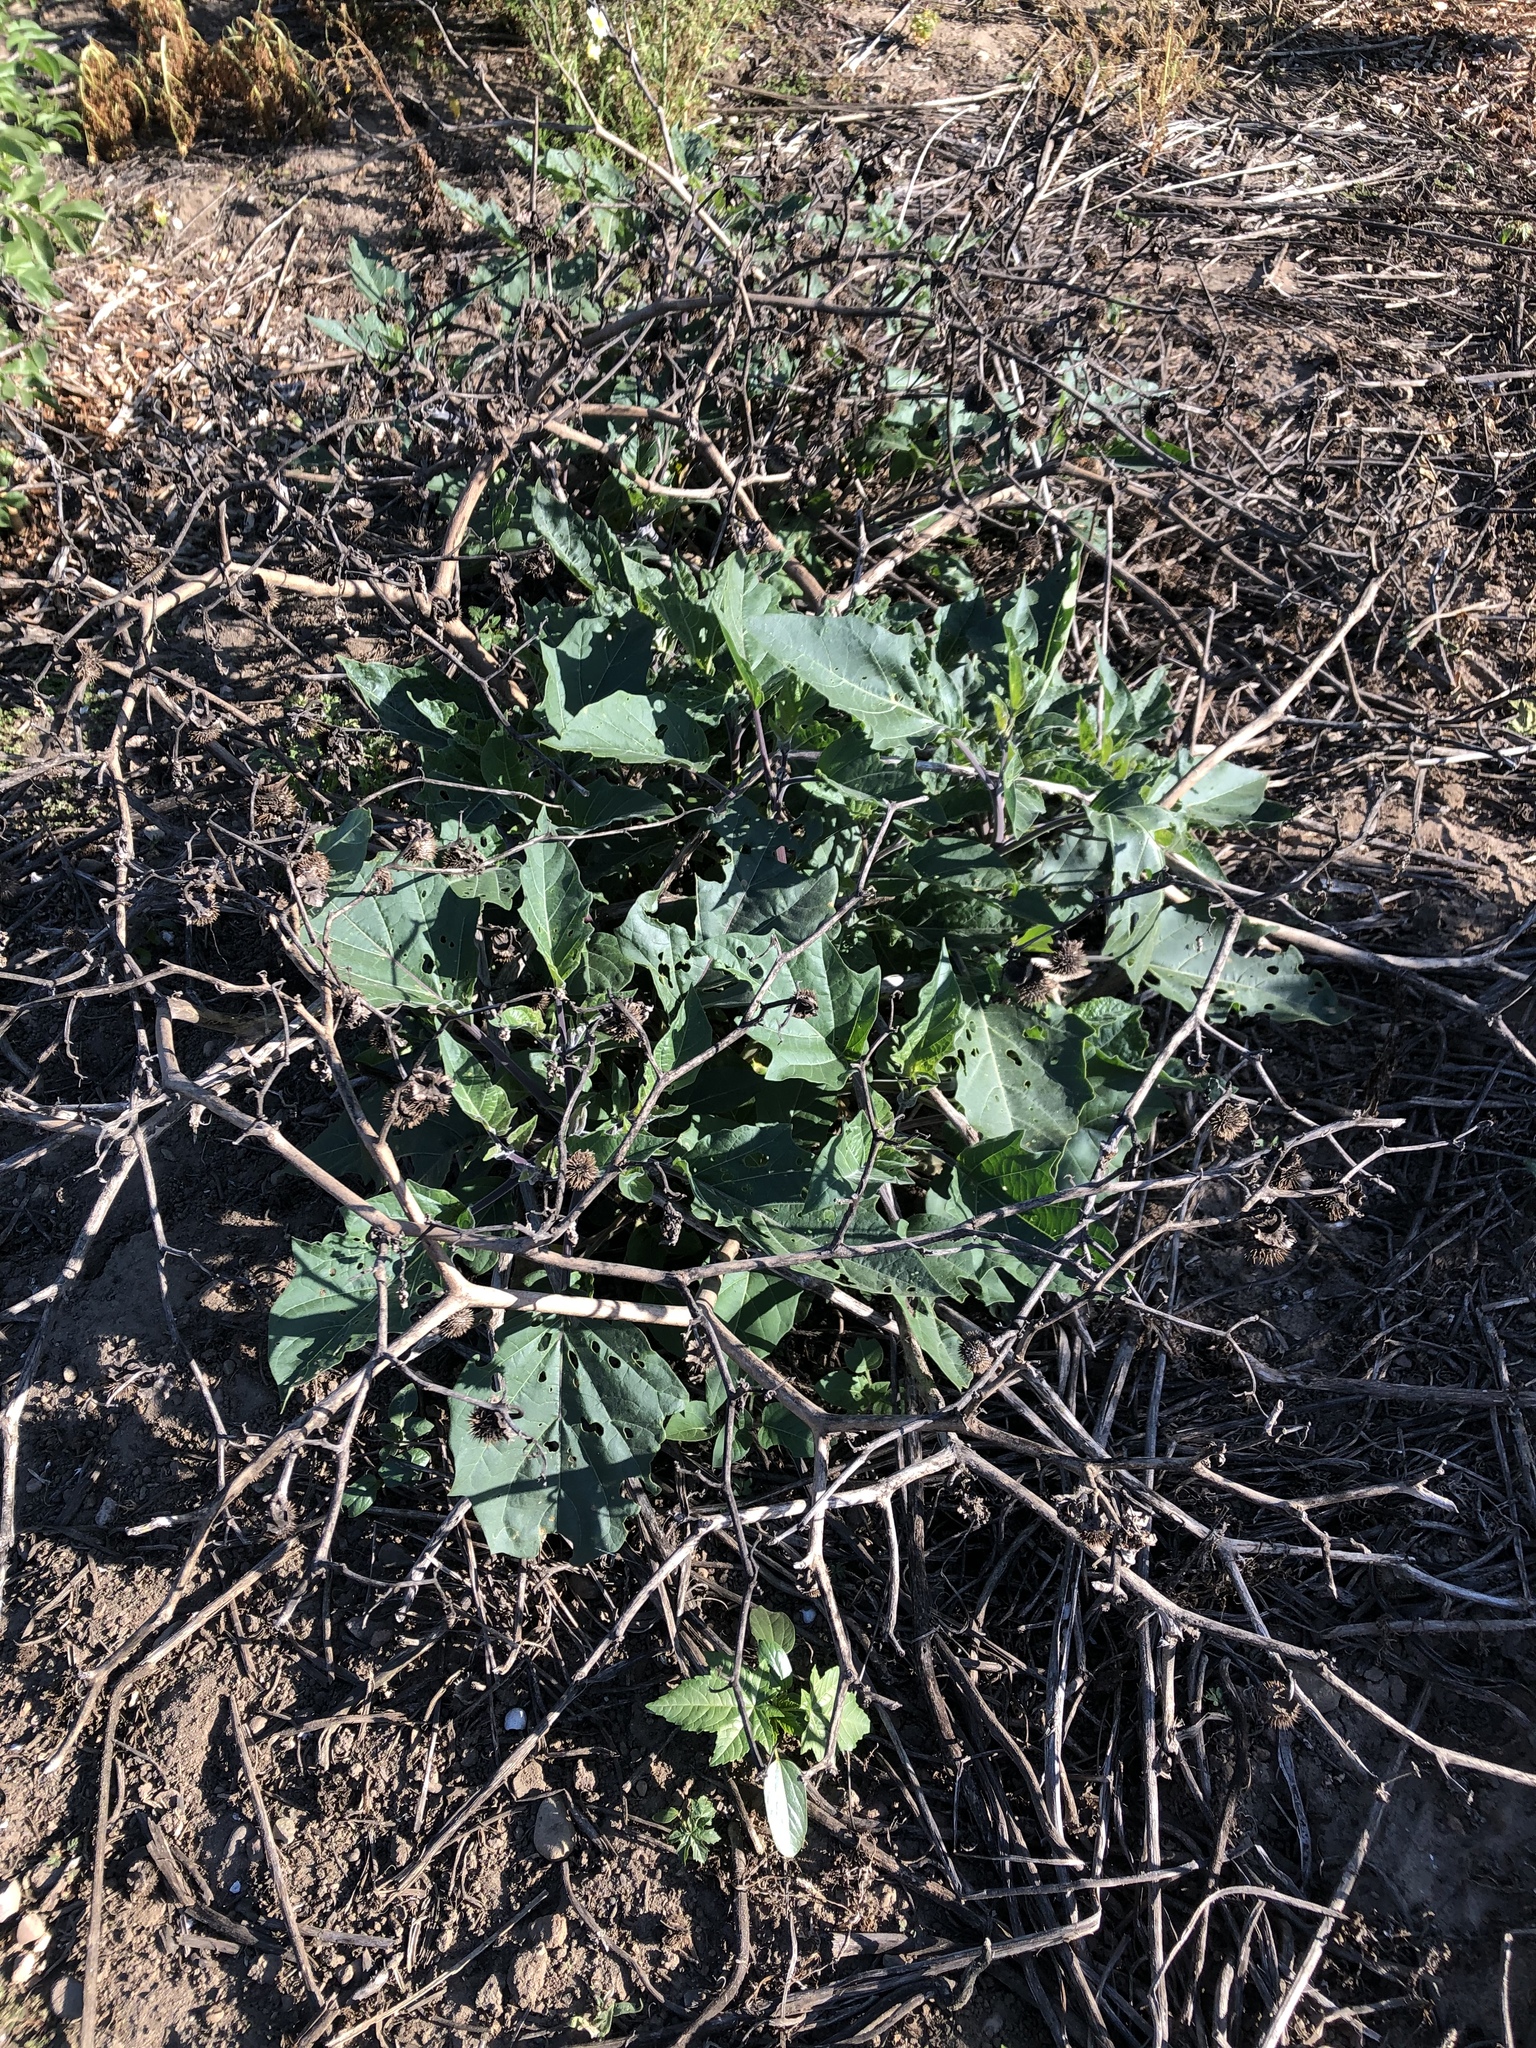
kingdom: Plantae
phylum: Tracheophyta
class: Magnoliopsida
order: Solanales
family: Solanaceae
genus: Datura
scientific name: Datura wrightii
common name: Sacred thorn-apple
